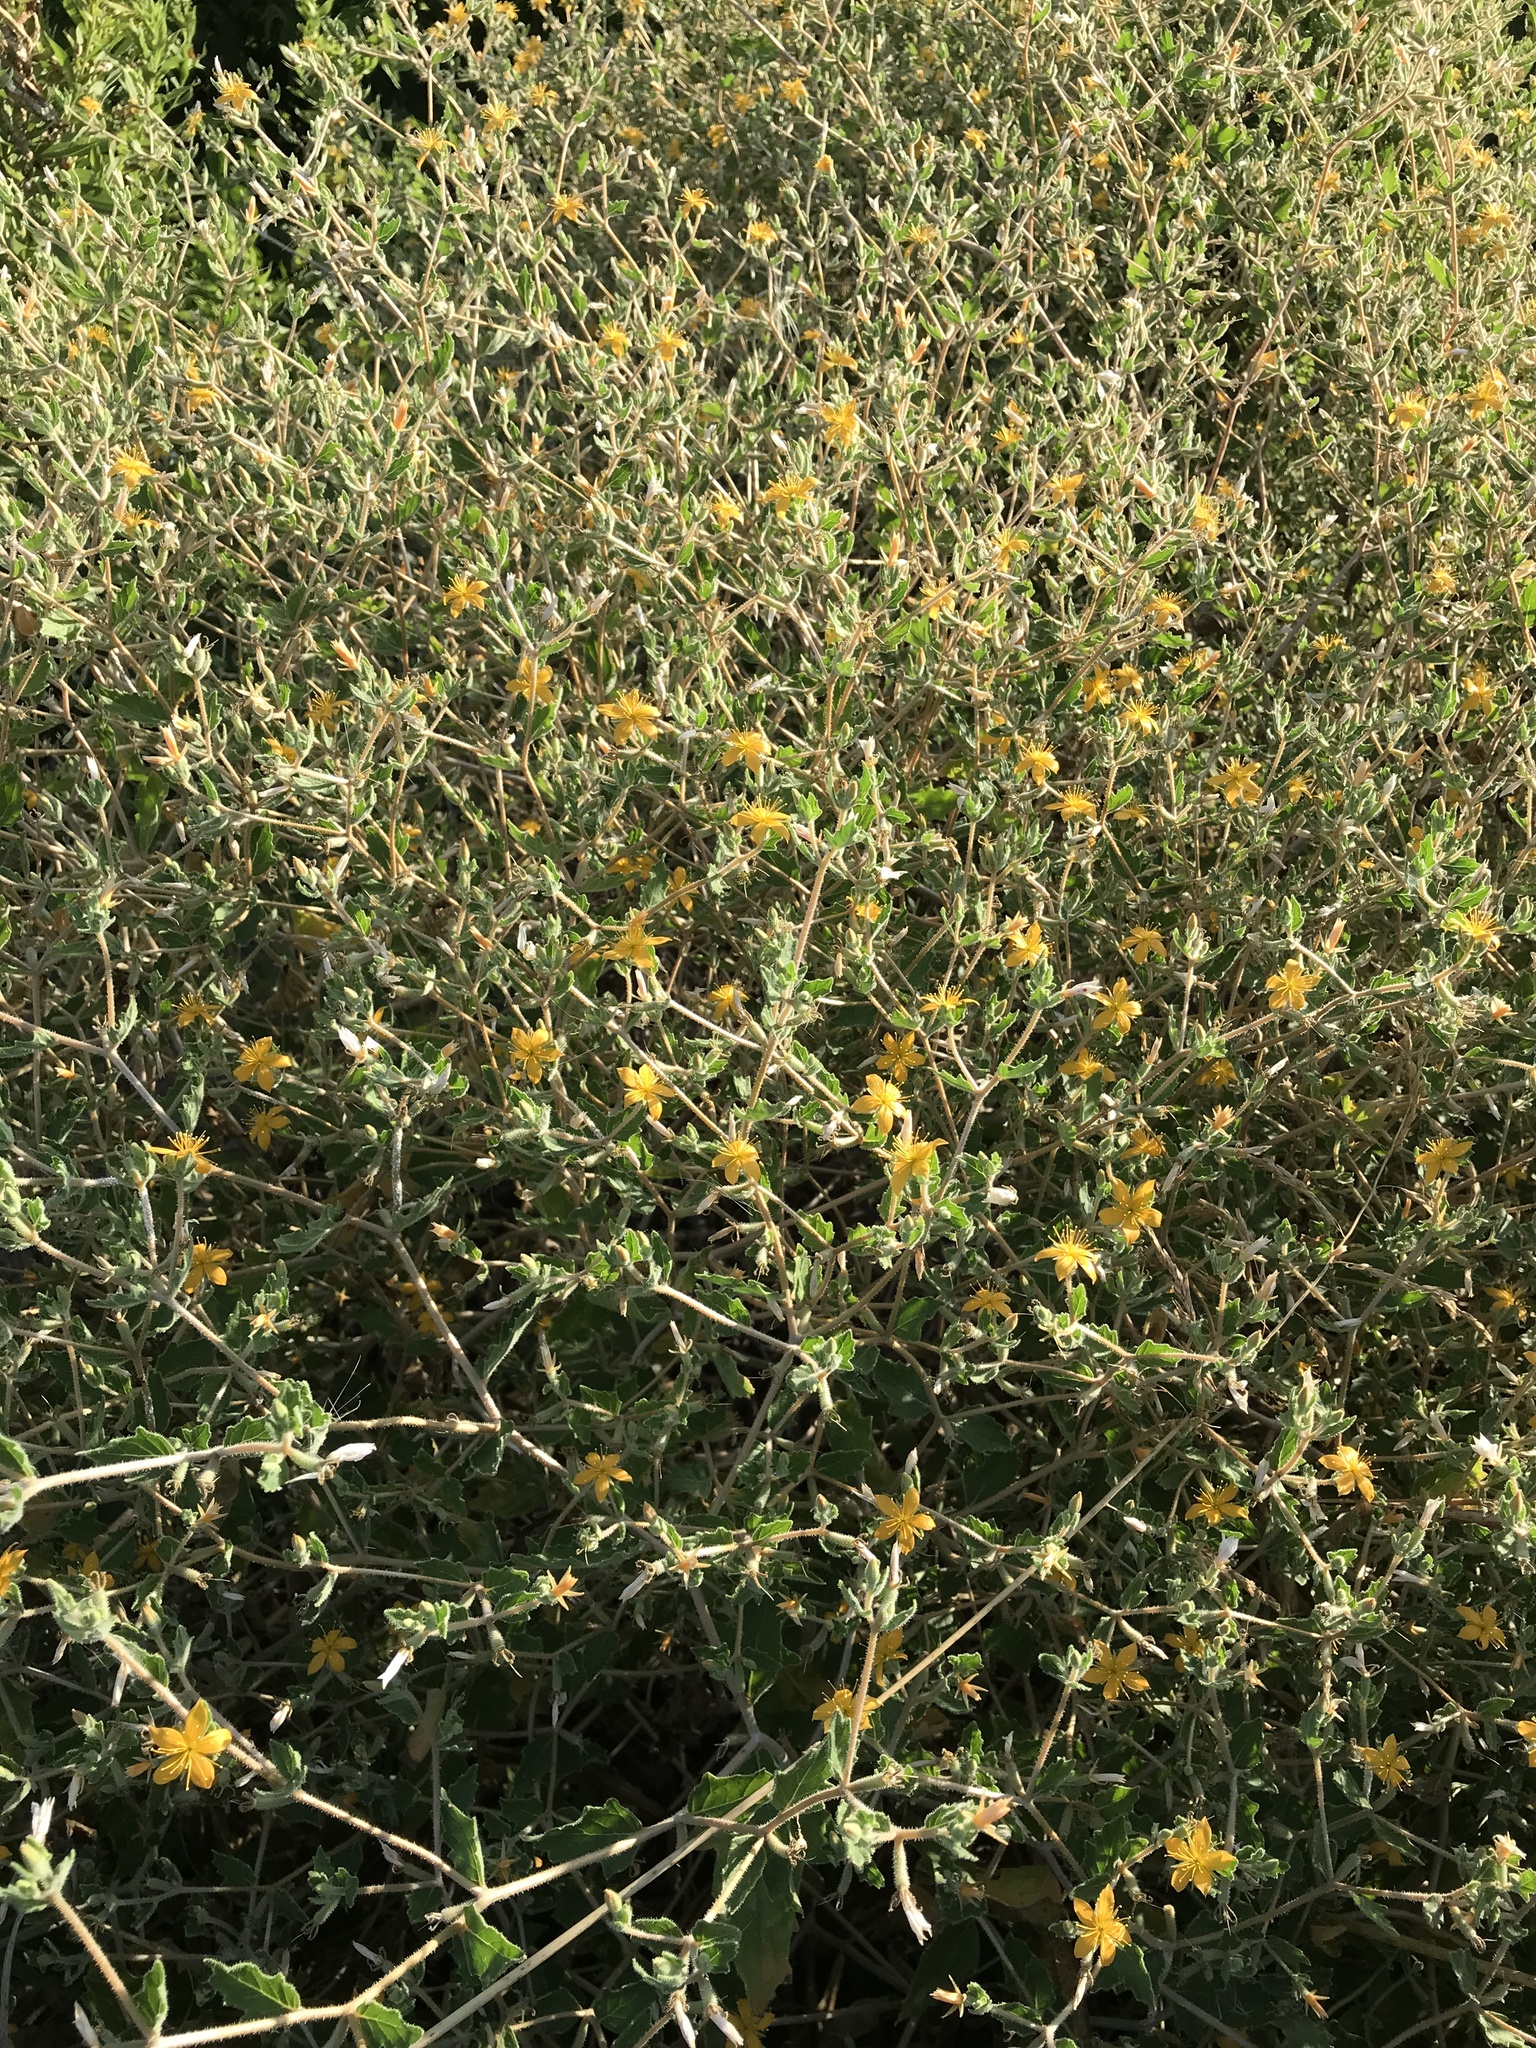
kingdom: Plantae
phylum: Tracheophyta
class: Magnoliopsida
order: Cornales
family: Loasaceae
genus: Mentzelia
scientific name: Mentzelia oligosperma
